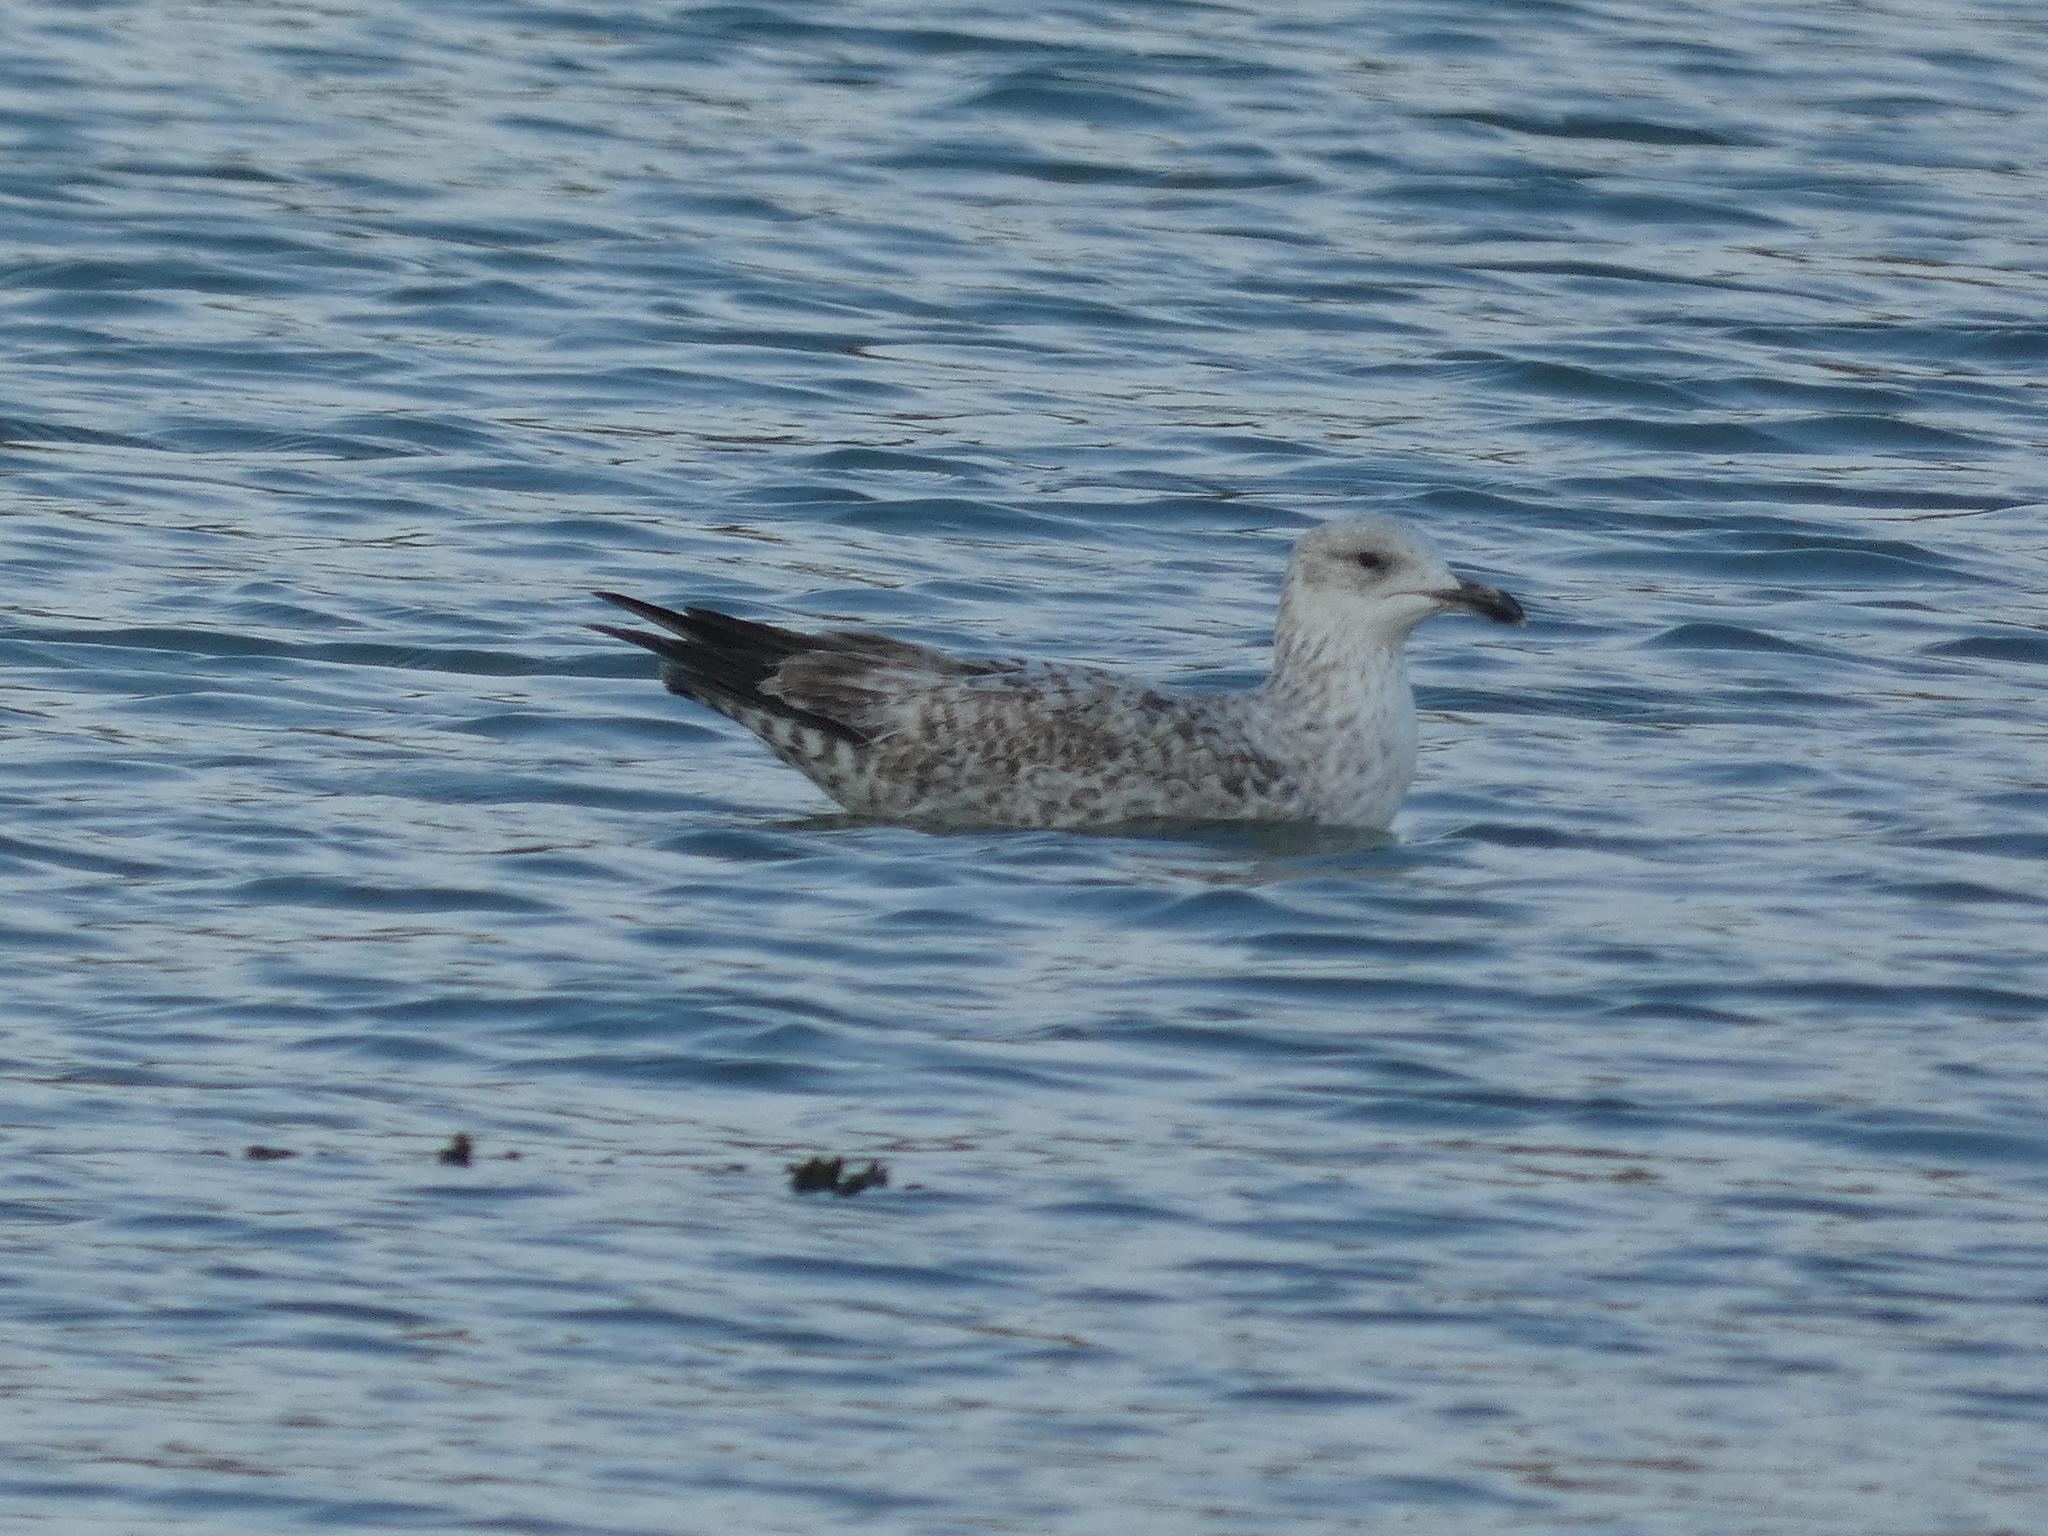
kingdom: Animalia
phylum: Chordata
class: Aves
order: Charadriiformes
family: Laridae
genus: Larus
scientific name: Larus argentatus
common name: Herring gull
